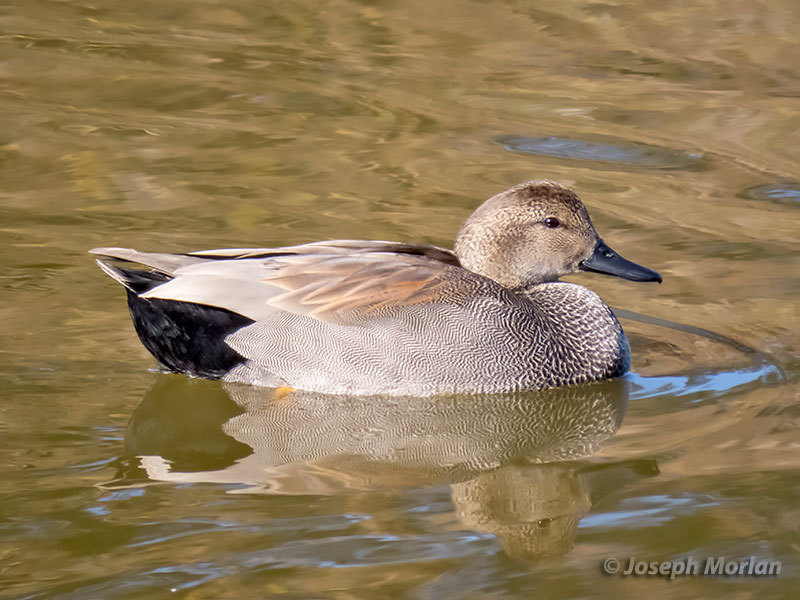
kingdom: Animalia
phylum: Chordata
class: Aves
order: Anseriformes
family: Anatidae
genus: Mareca
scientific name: Mareca strepera
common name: Gadwall
